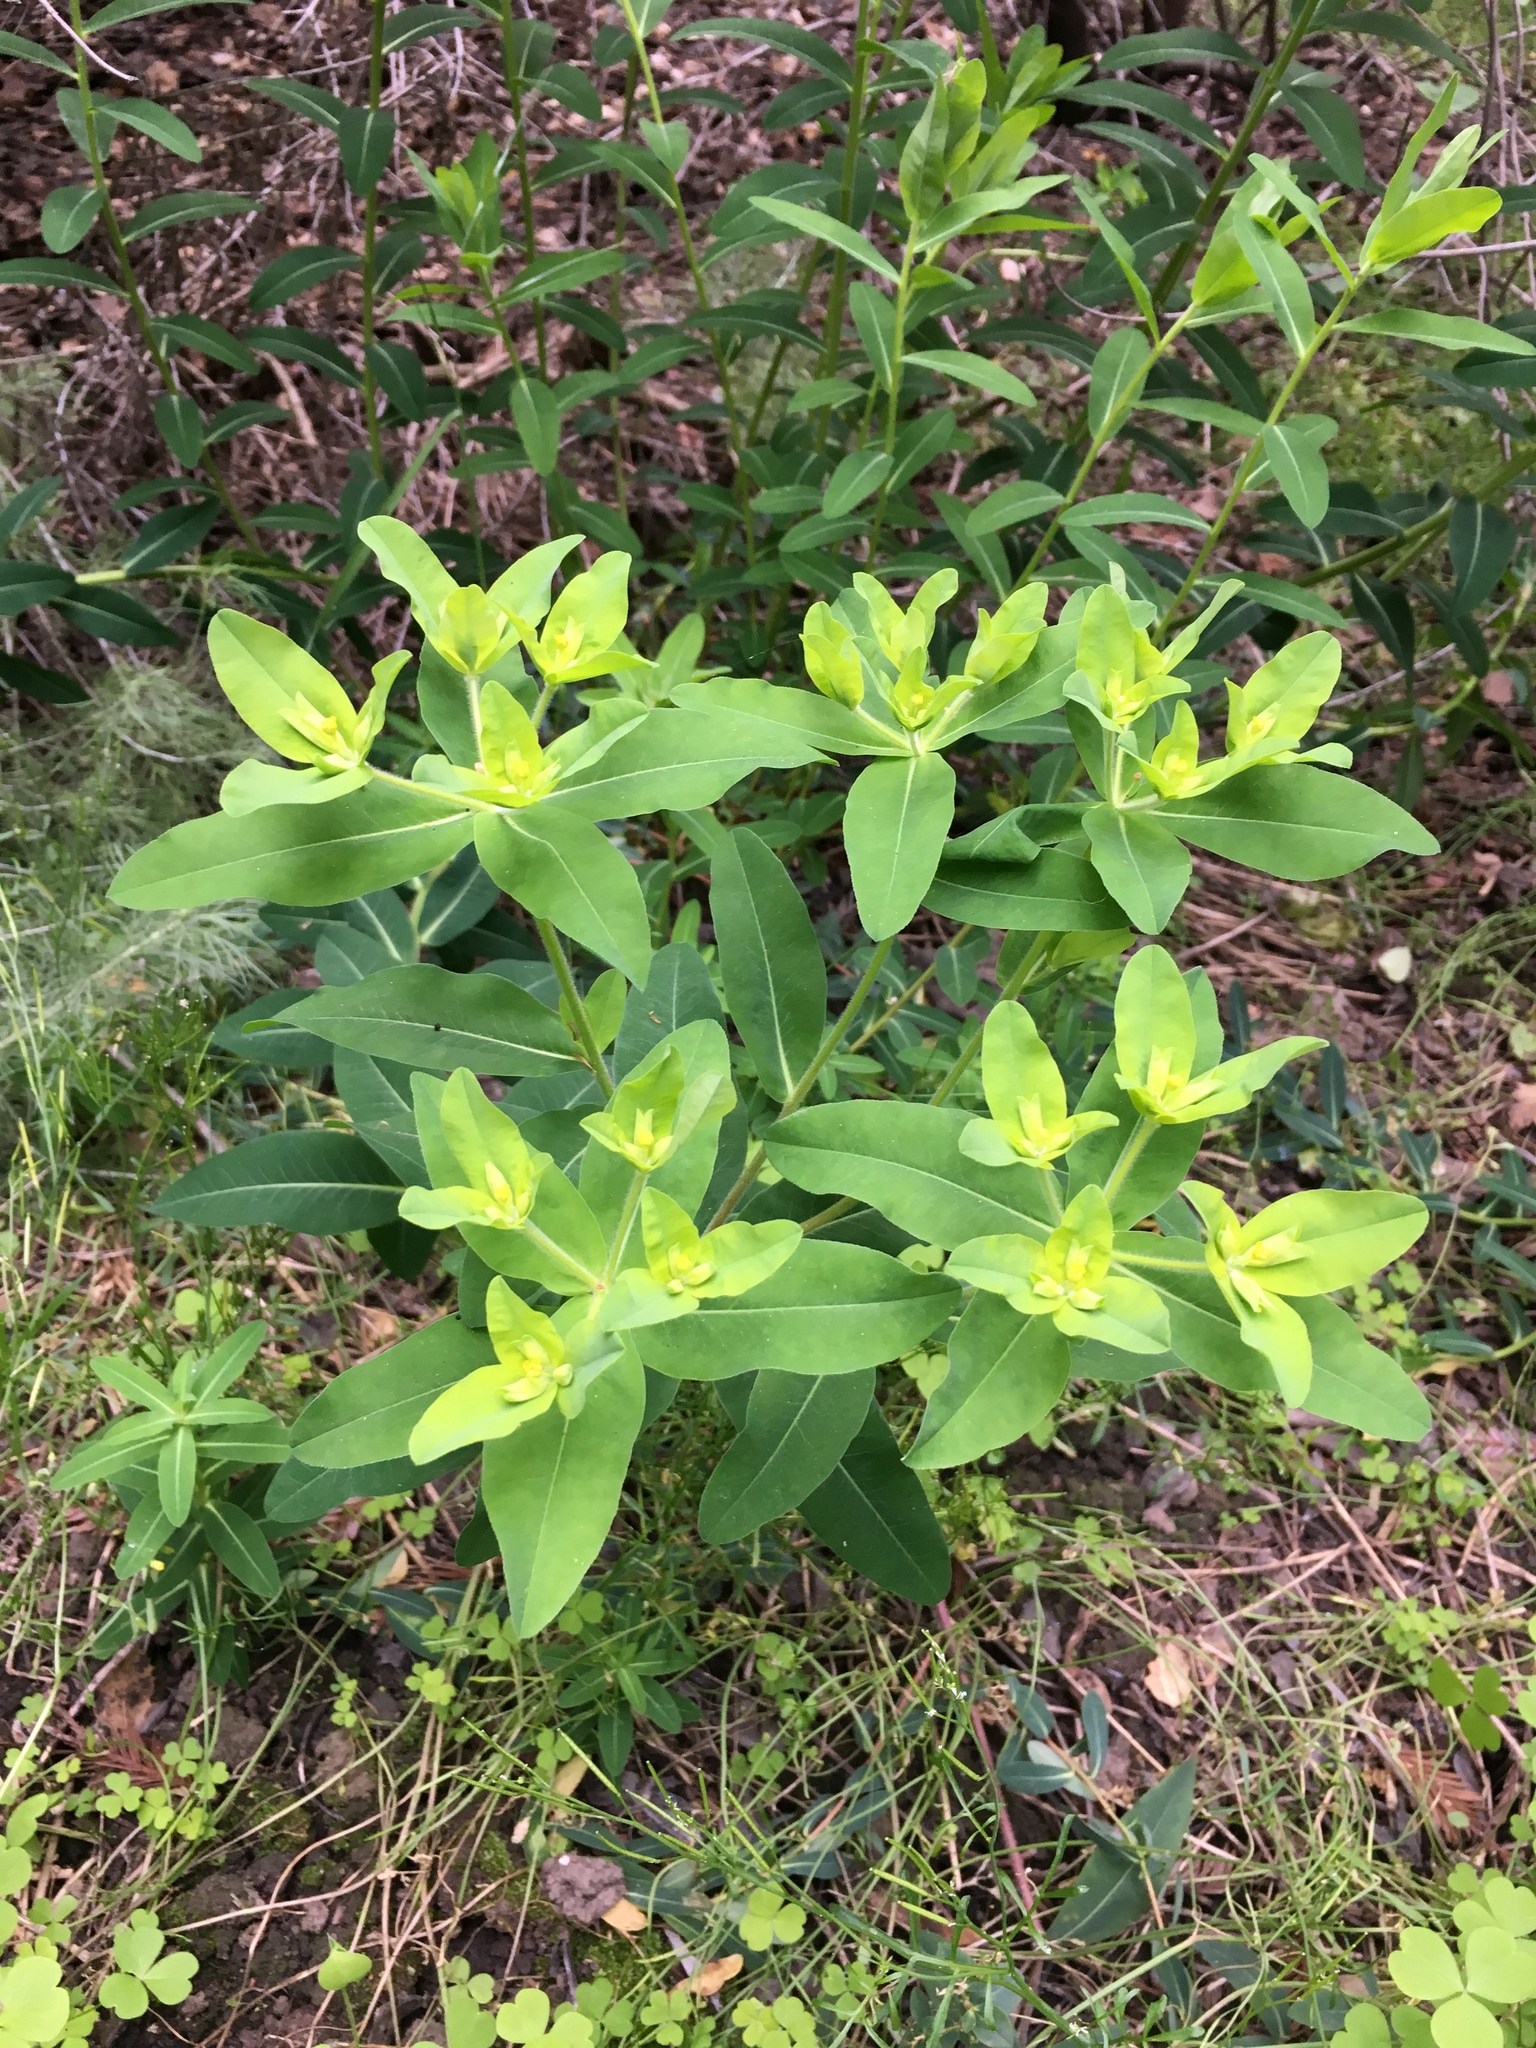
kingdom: Plantae
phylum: Tracheophyta
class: Magnoliopsida
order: Malpighiales
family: Euphorbiaceae
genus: Euphorbia
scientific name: Euphorbia oblongata
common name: Balkan spurge
